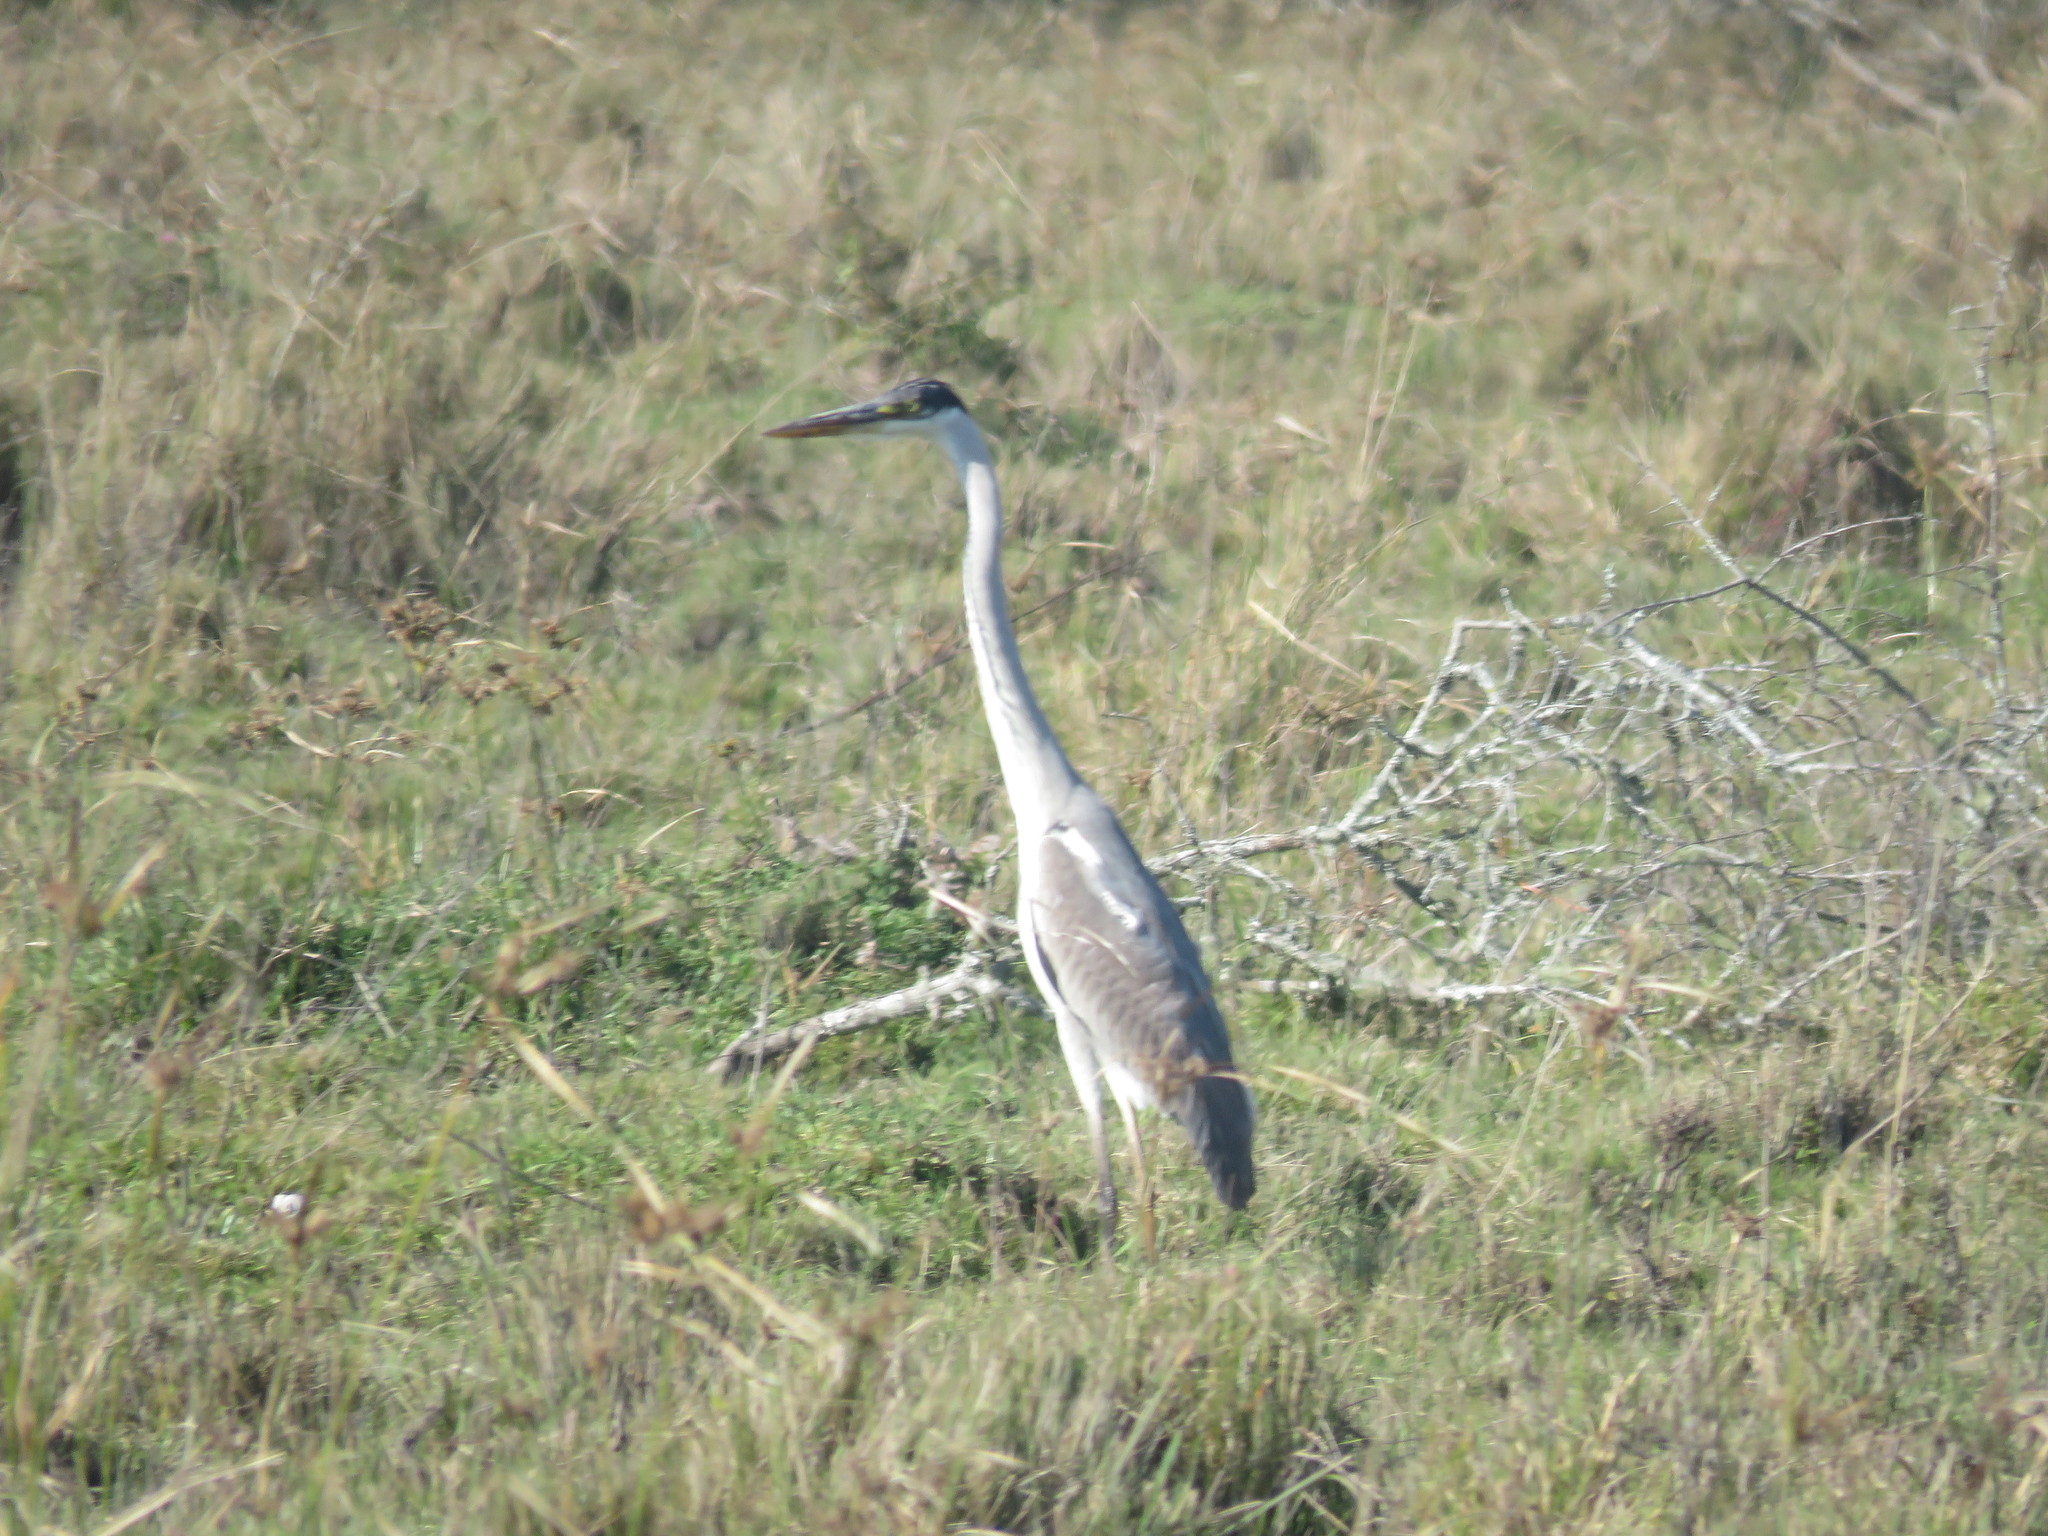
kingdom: Animalia
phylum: Chordata
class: Aves
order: Pelecaniformes
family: Ardeidae
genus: Ardea
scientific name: Ardea cocoi
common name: Cocoi heron
